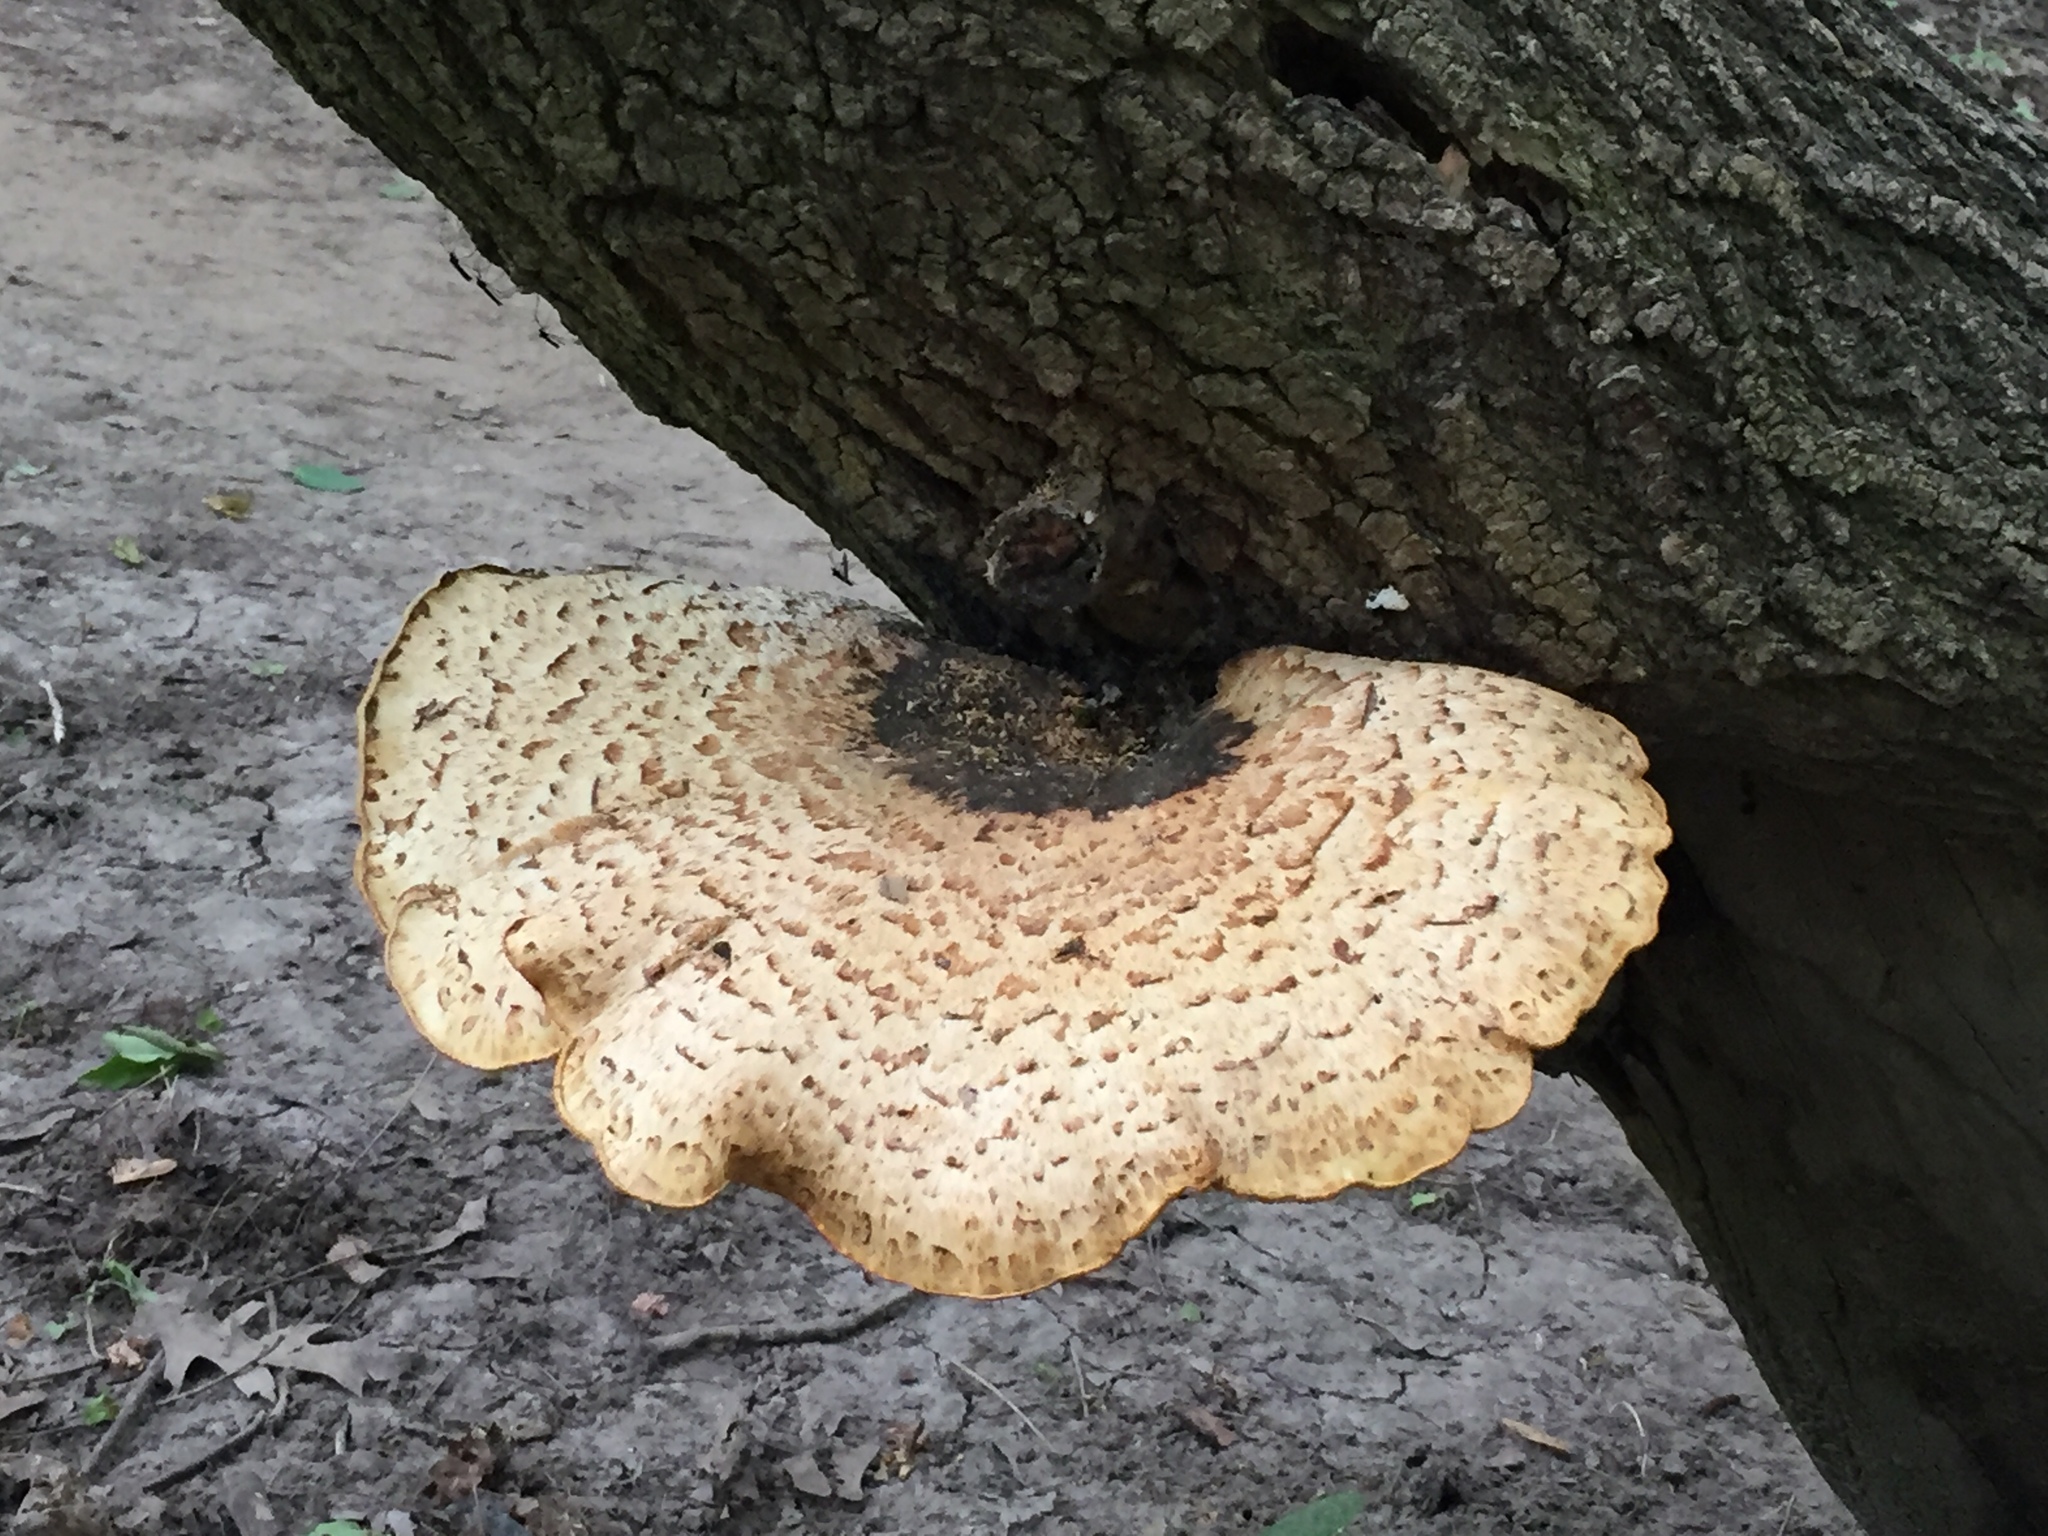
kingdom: Fungi
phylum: Basidiomycota
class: Agaricomycetes
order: Polyporales
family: Polyporaceae
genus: Cerioporus
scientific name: Cerioporus squamosus
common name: Dryad's saddle
